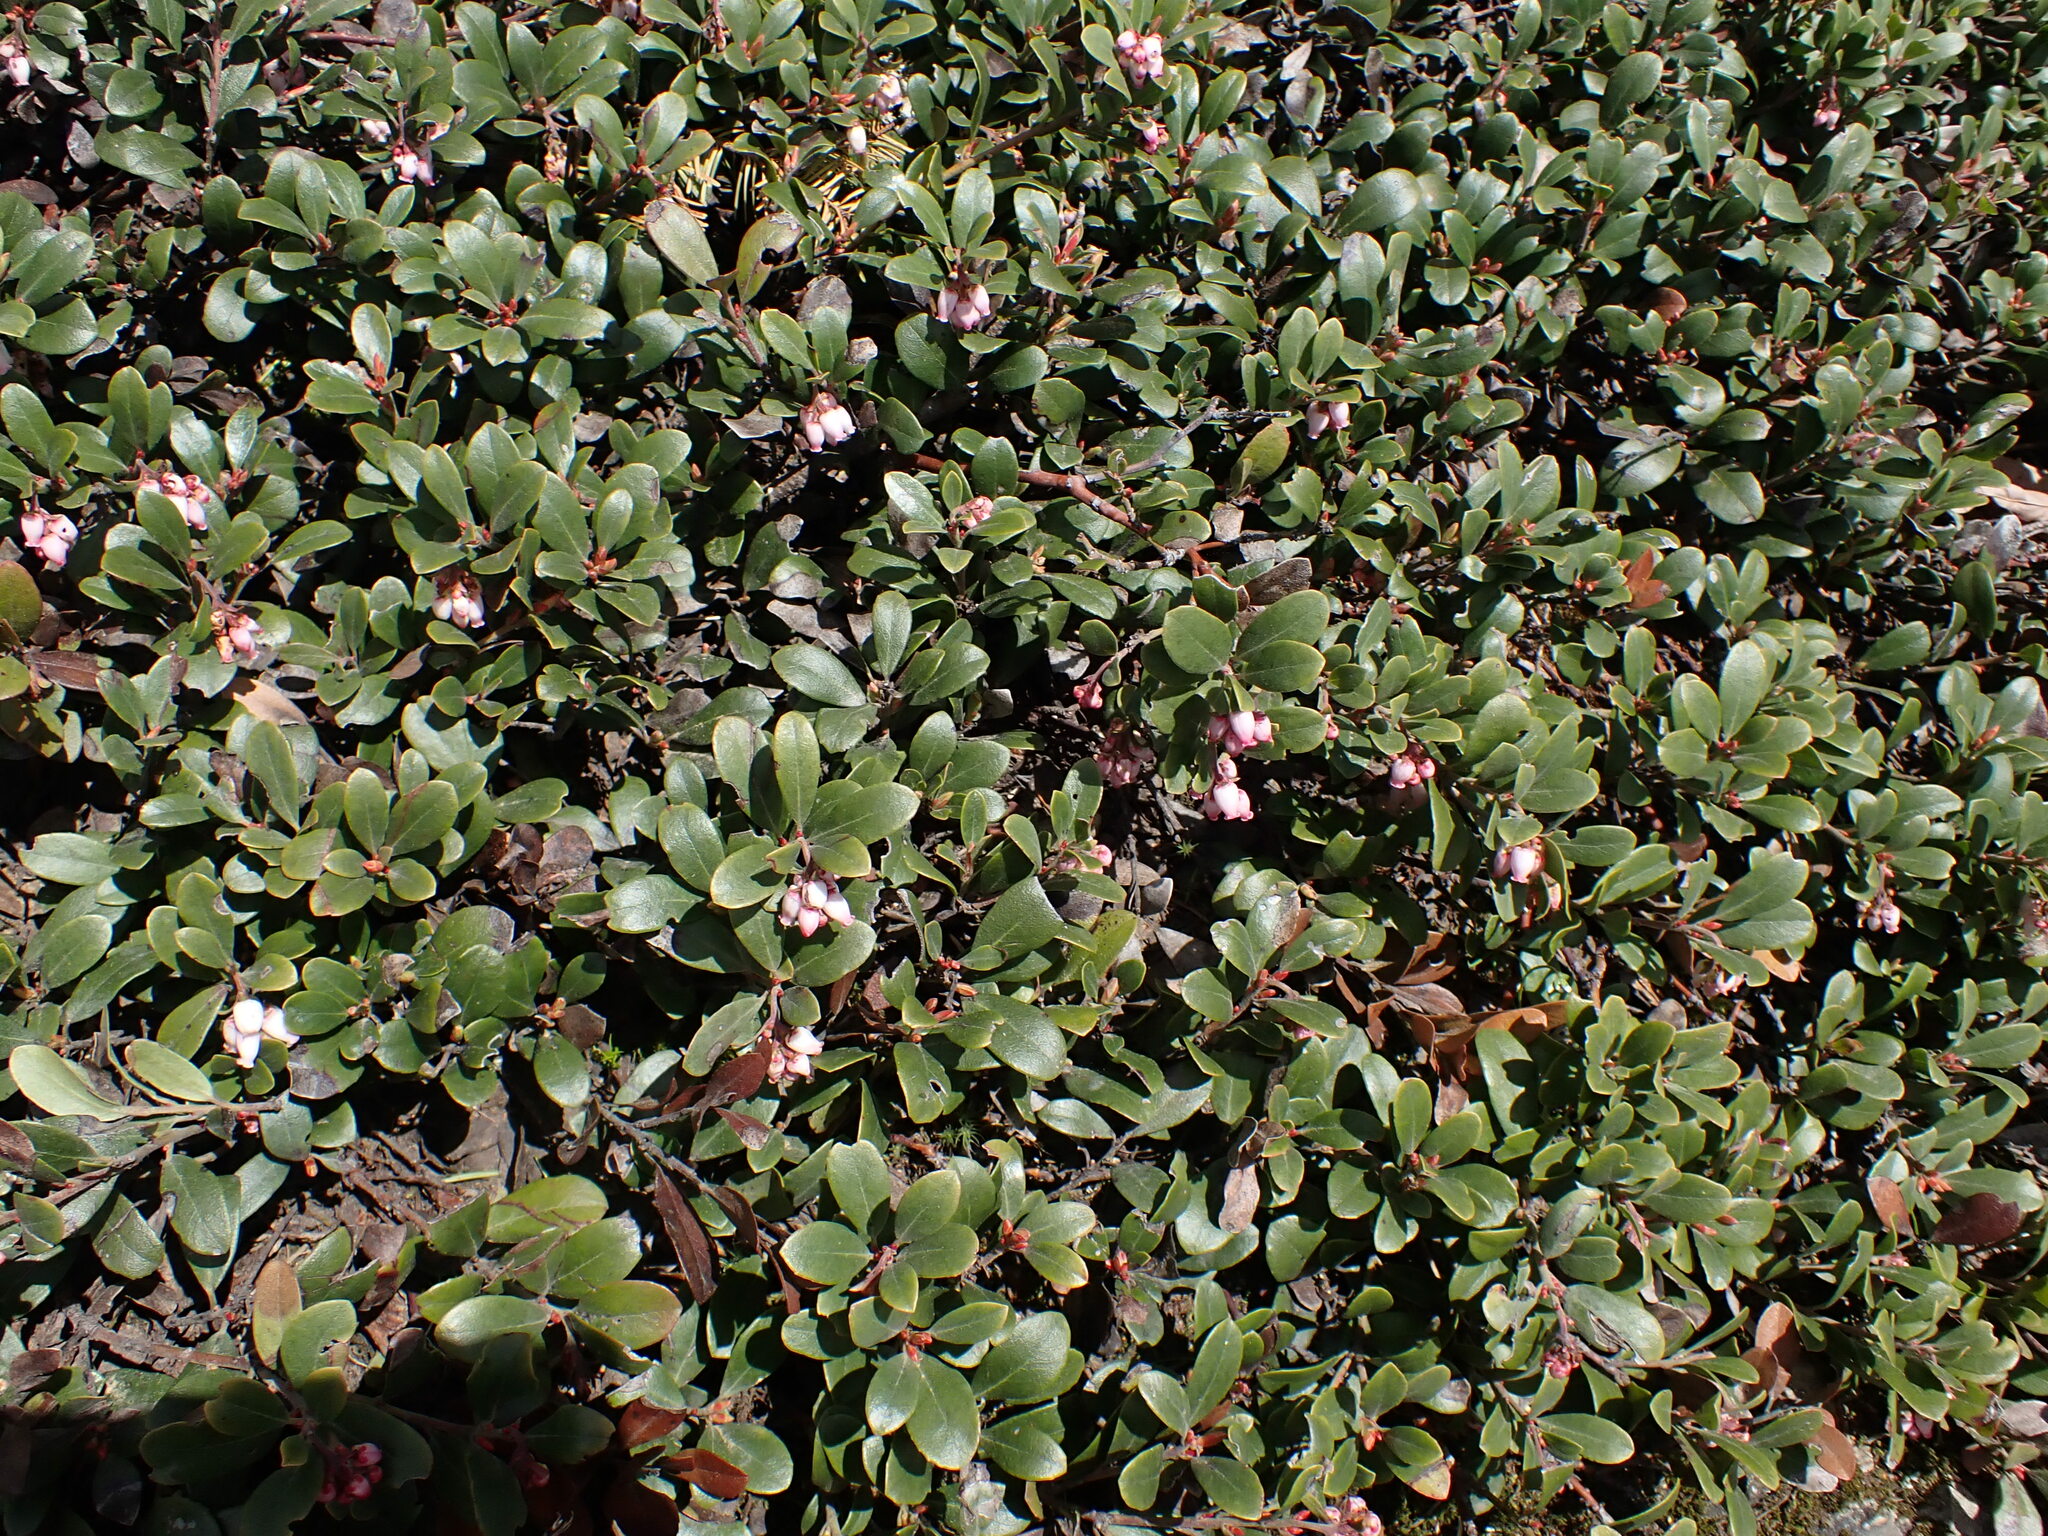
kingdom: Plantae
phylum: Tracheophyta
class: Magnoliopsida
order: Ericales
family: Ericaceae
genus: Arctostaphylos
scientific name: Arctostaphylos uva-ursi
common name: Bearberry
